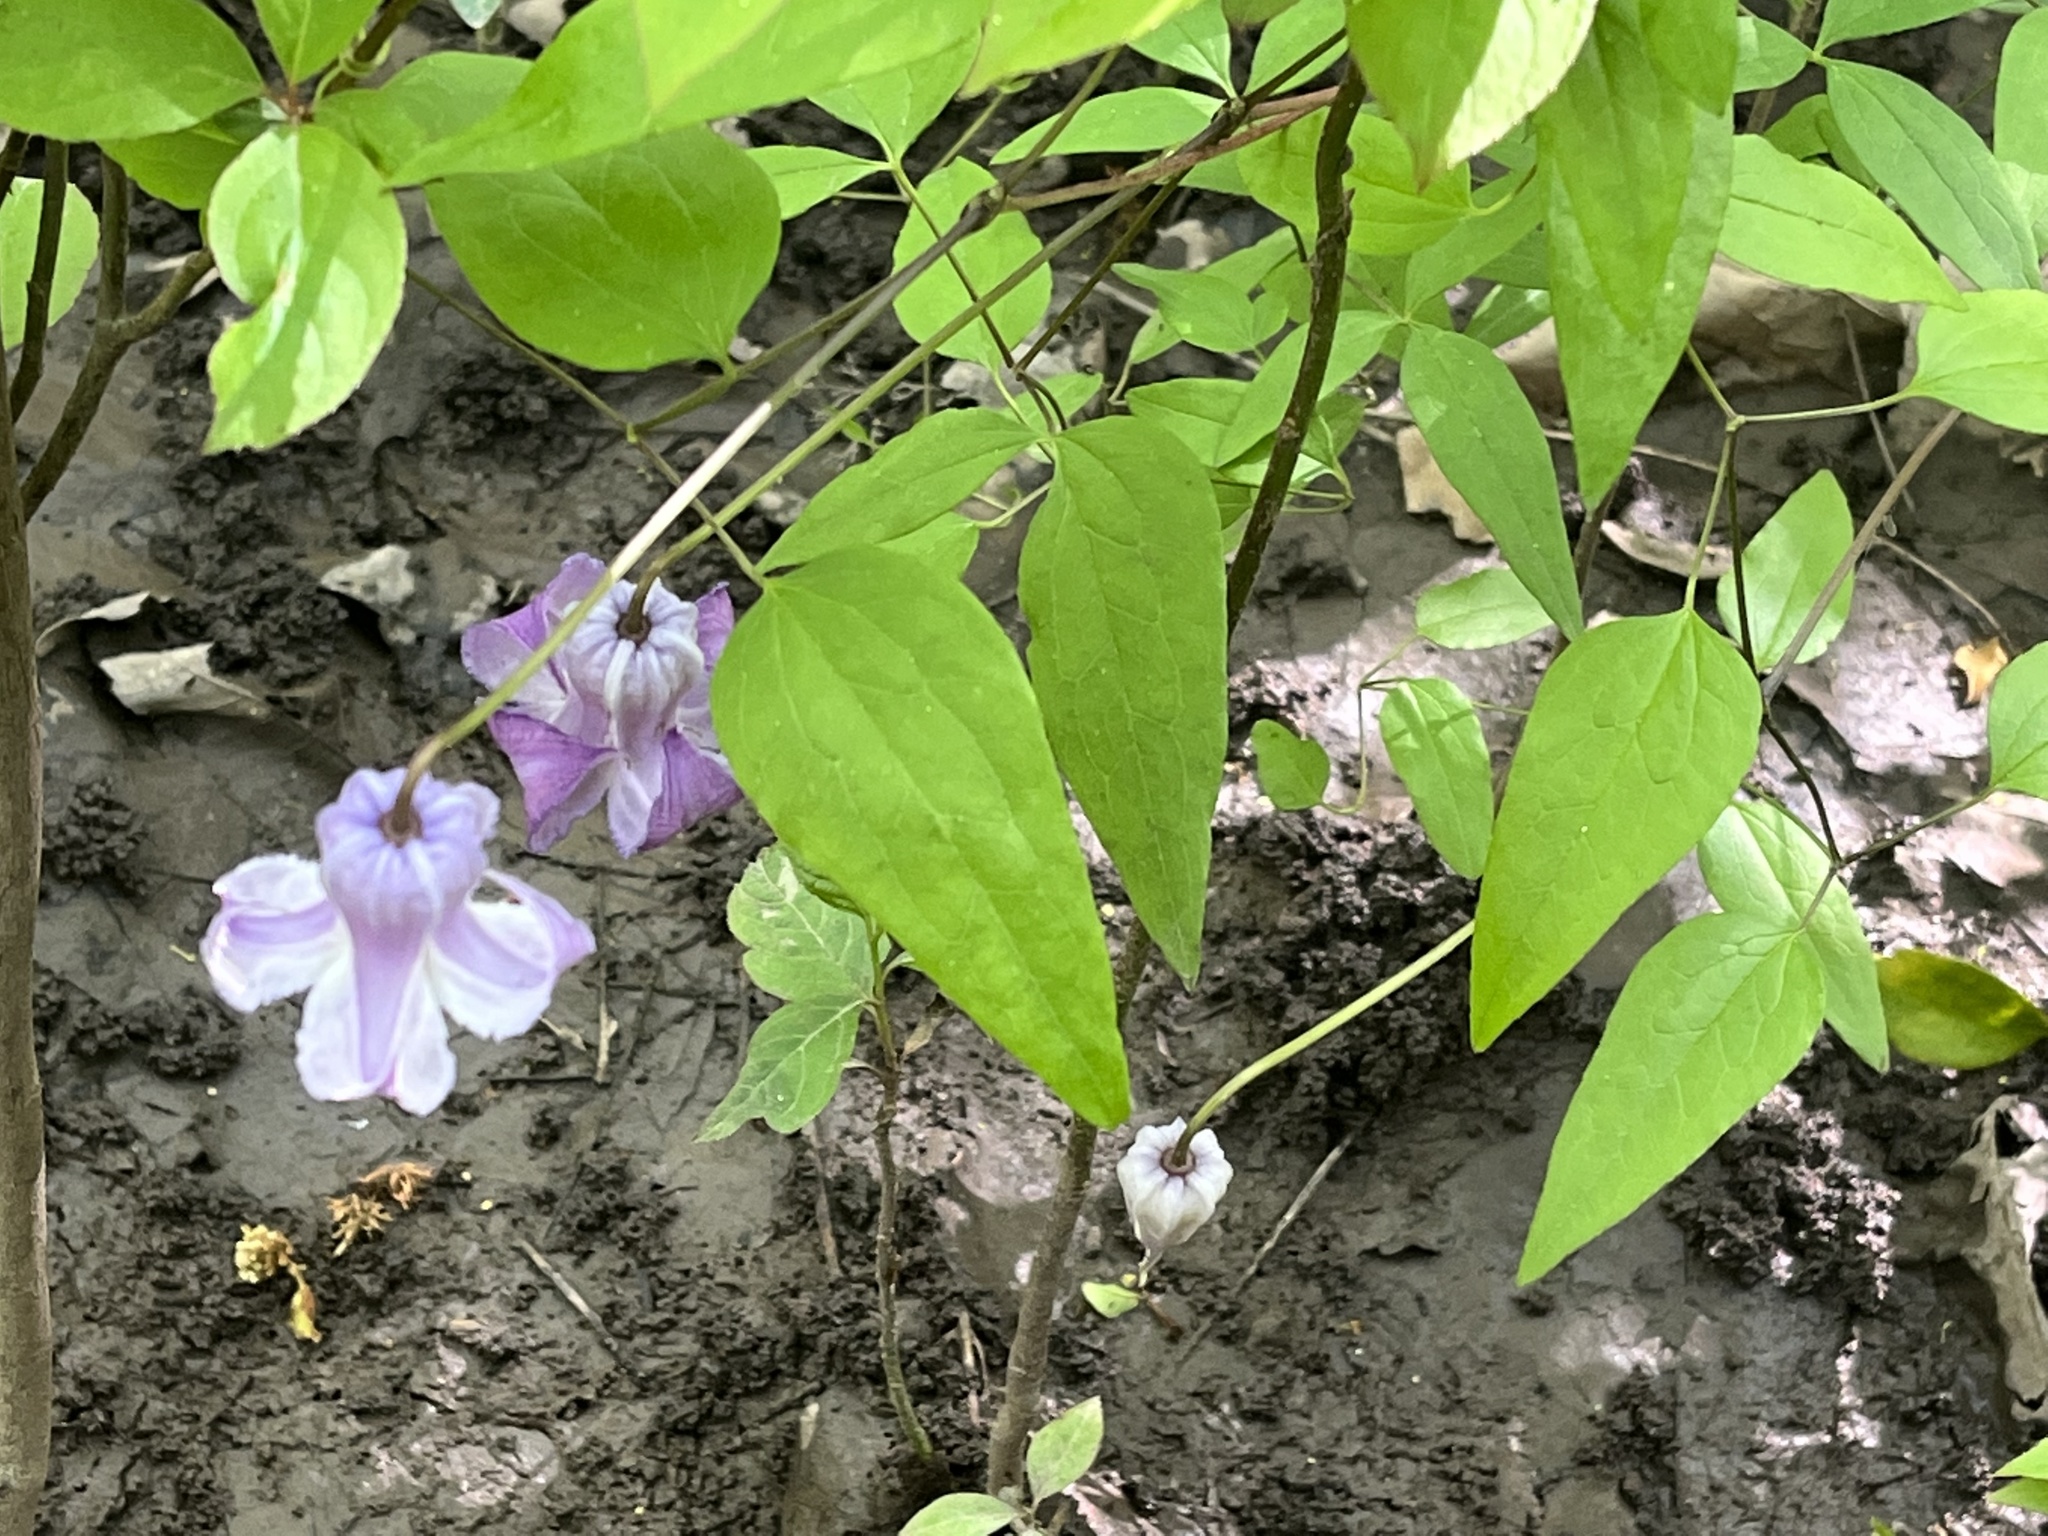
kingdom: Plantae
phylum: Tracheophyta
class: Magnoliopsida
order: Ranunculales
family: Ranunculaceae
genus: Clematis
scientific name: Clematis crispa
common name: Curly clematis
